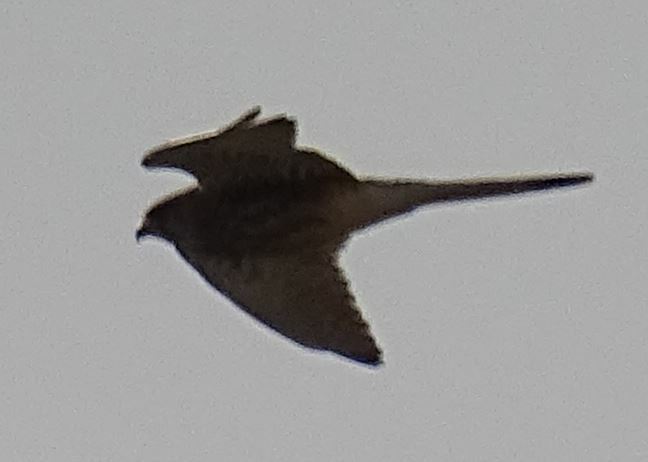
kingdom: Animalia
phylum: Chordata
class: Aves
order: Falconiformes
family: Falconidae
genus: Falco
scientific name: Falco tinnunculus
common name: Common kestrel
